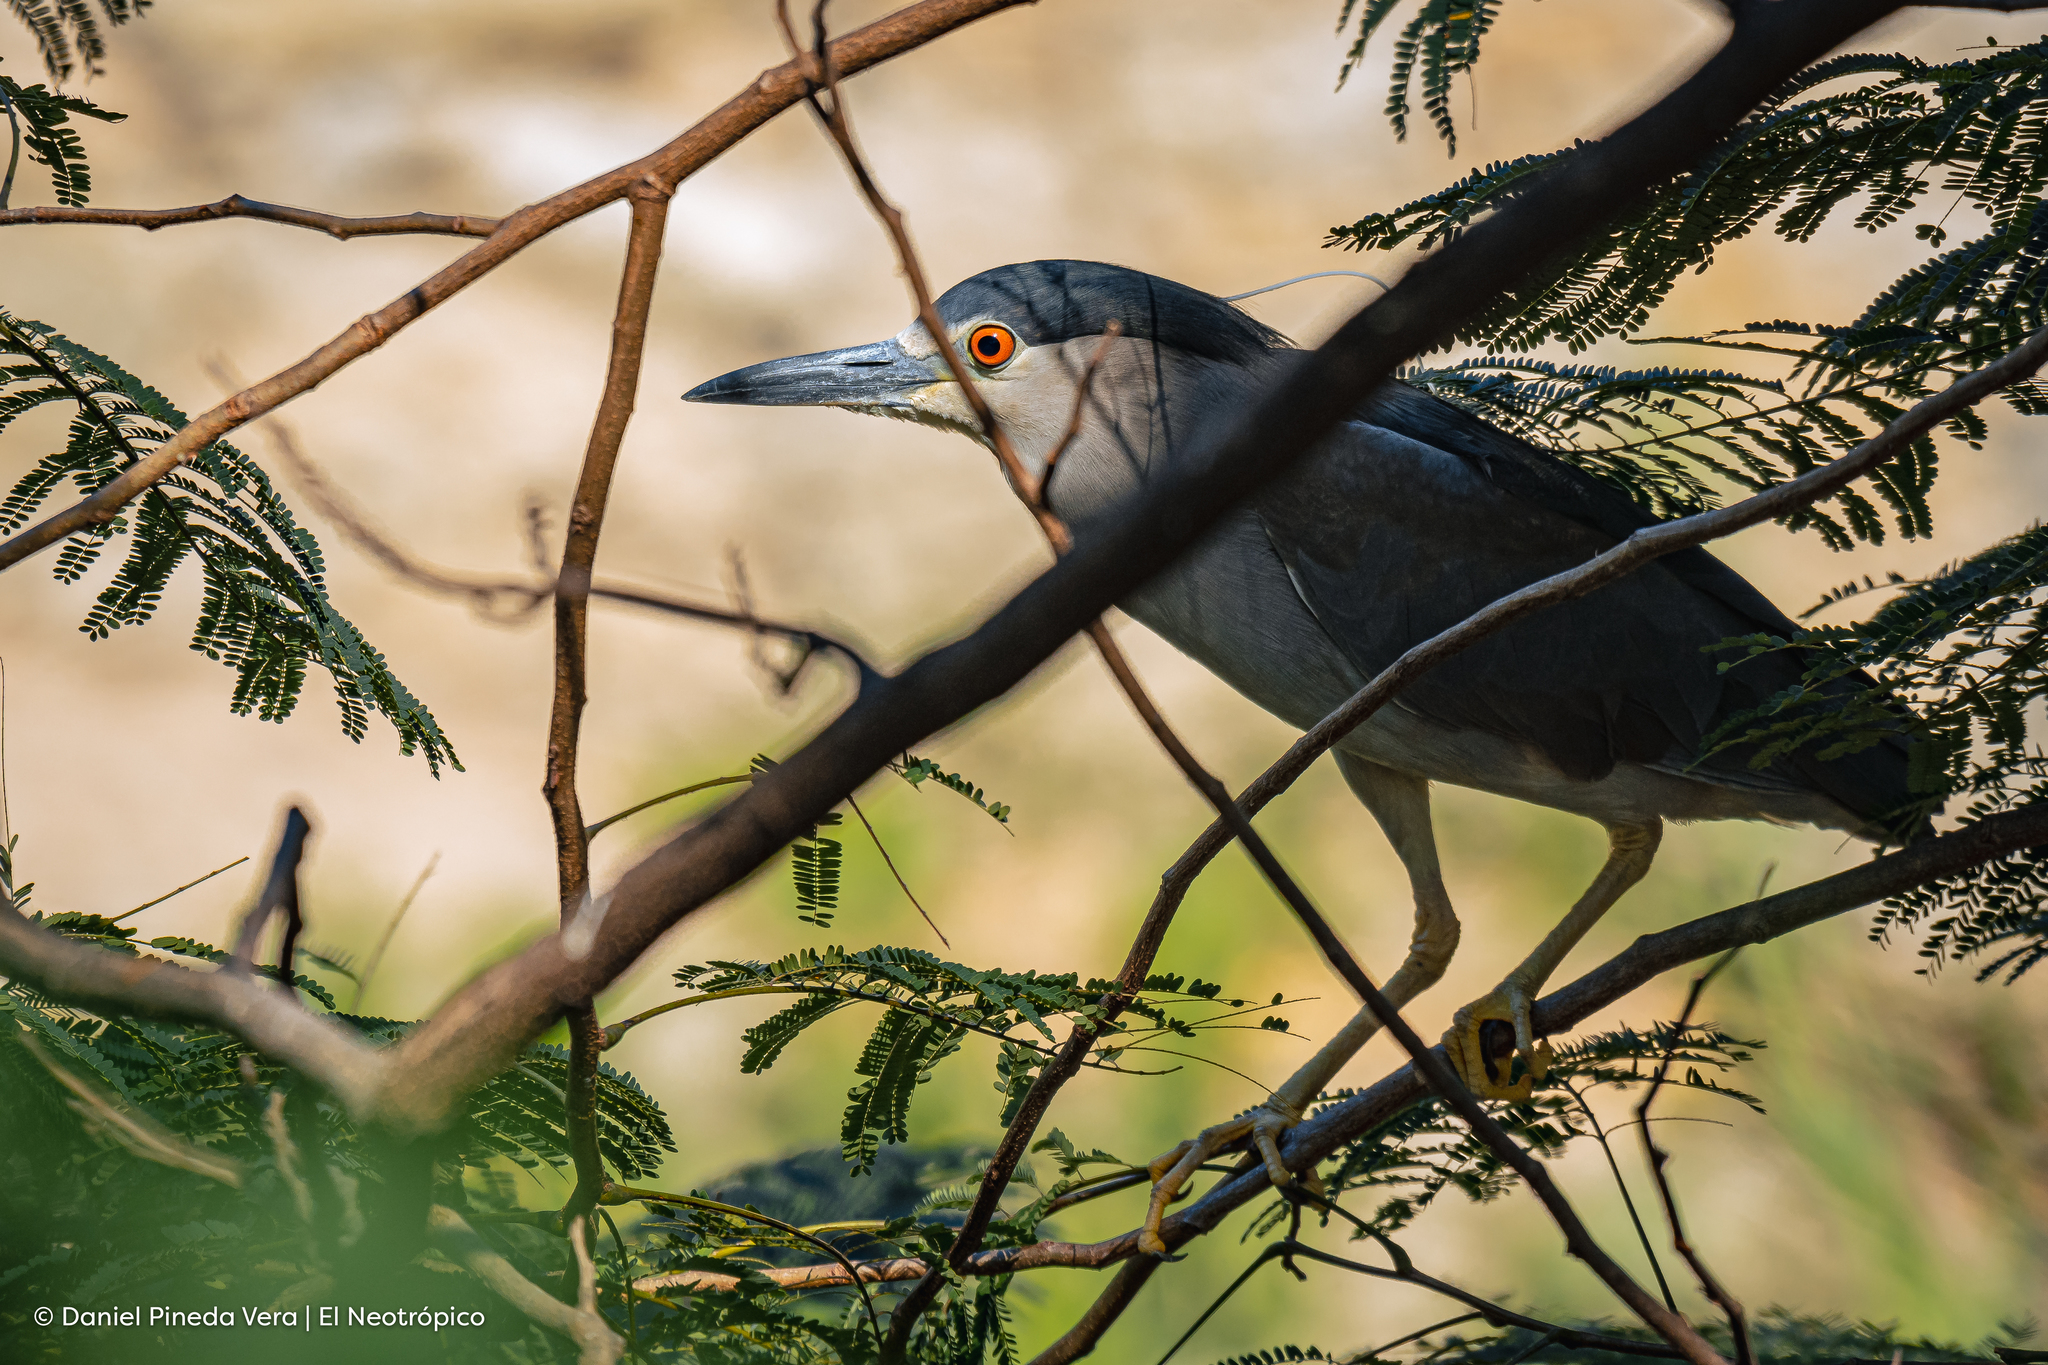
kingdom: Animalia
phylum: Chordata
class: Aves
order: Pelecaniformes
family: Ardeidae
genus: Nycticorax
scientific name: Nycticorax nycticorax
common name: Black-crowned night heron
